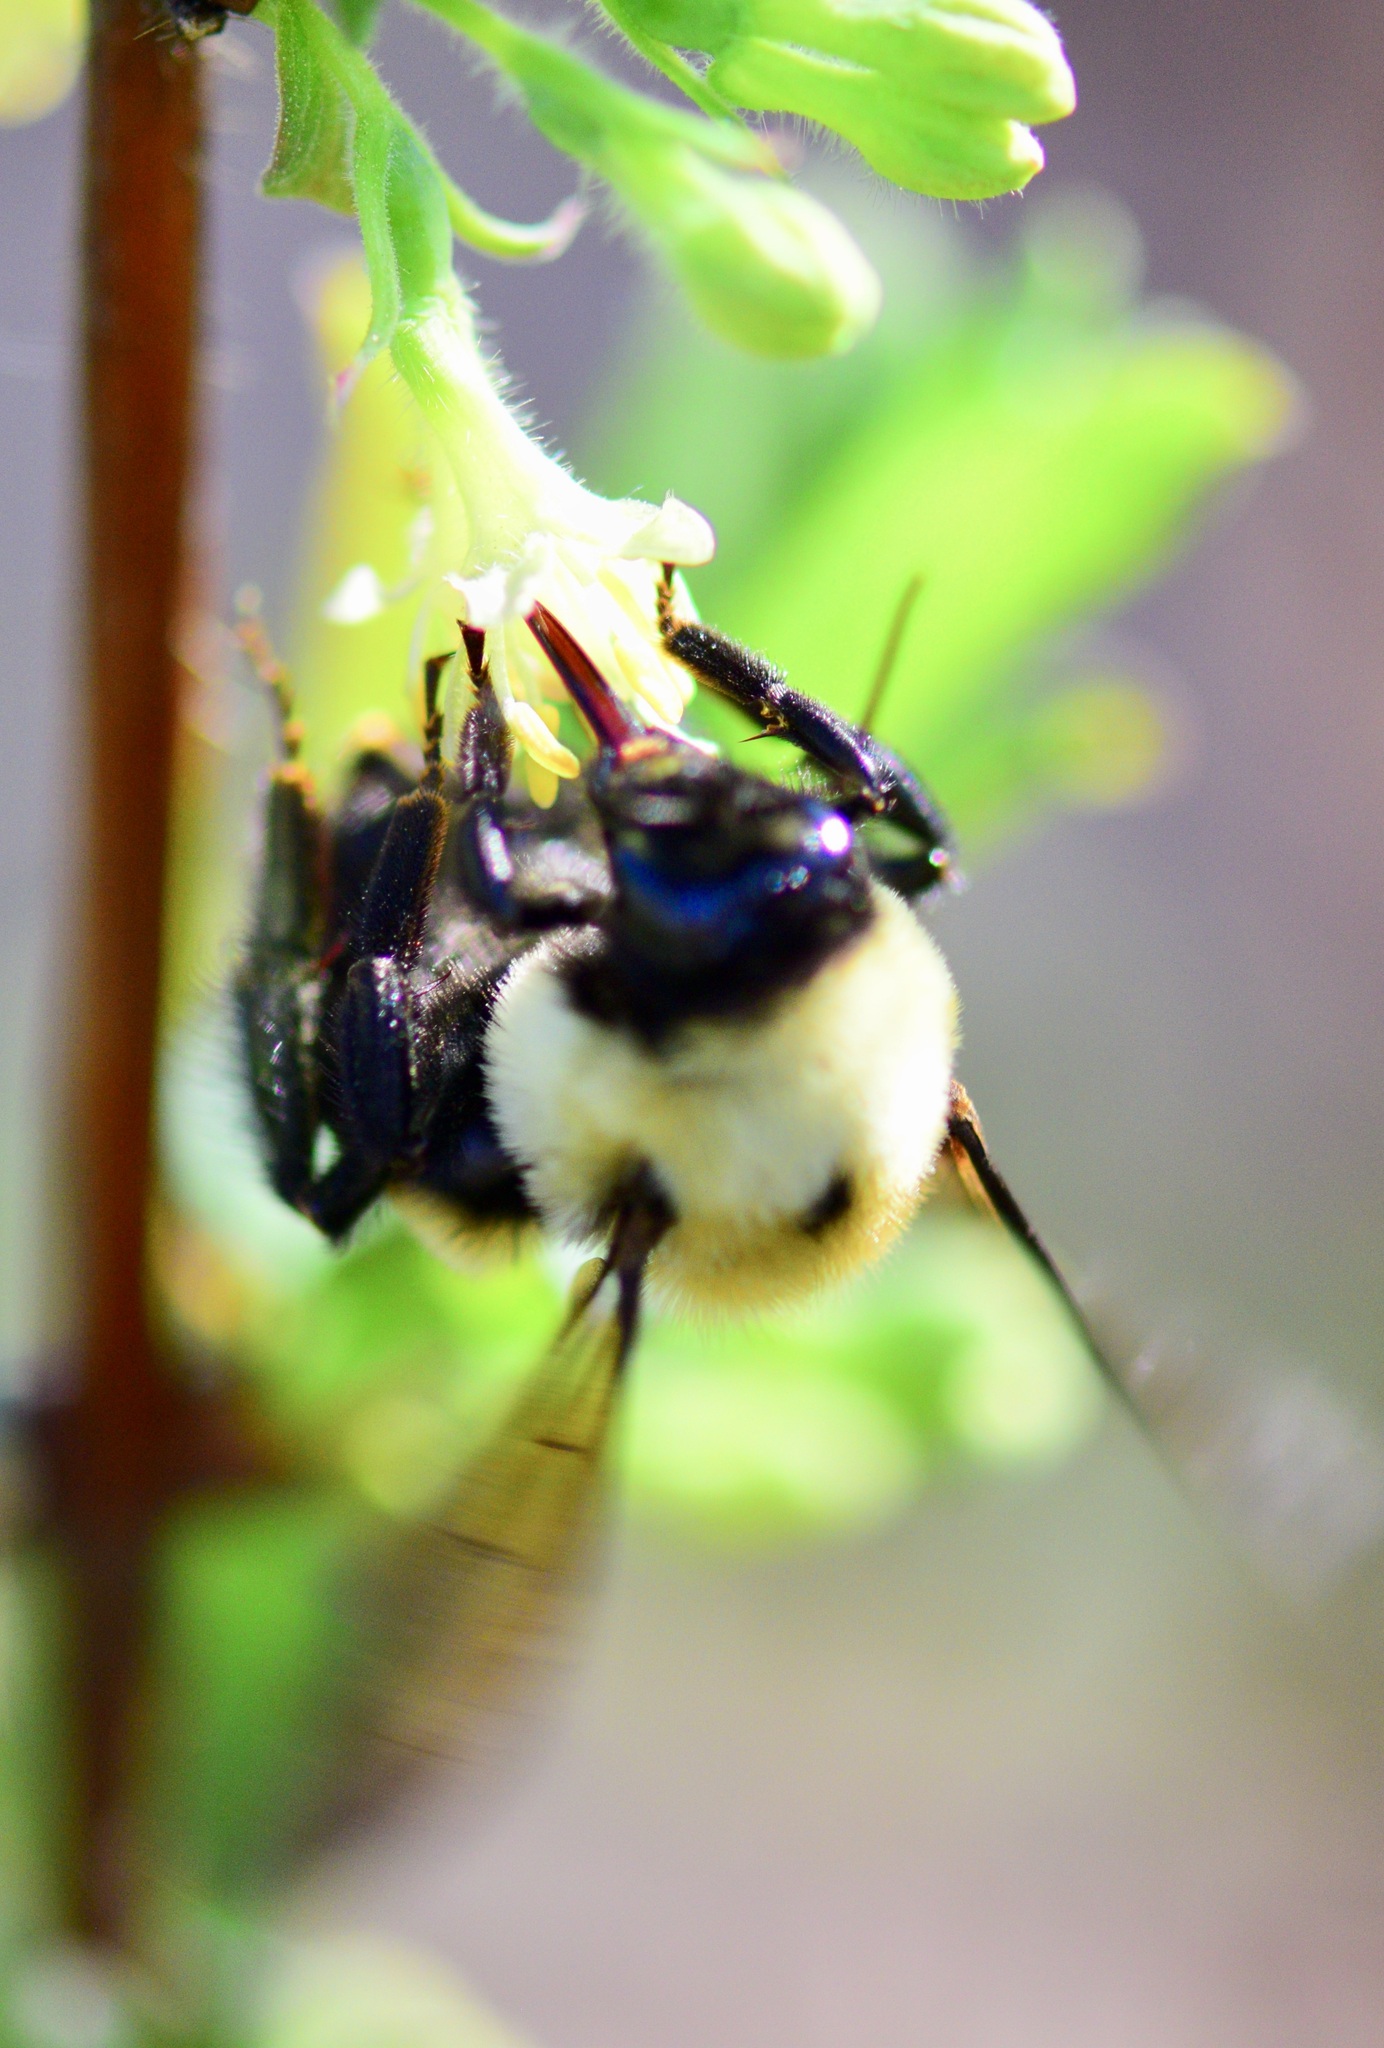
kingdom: Animalia
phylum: Arthropoda
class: Insecta
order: Hymenoptera
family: Apidae
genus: Bombus
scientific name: Bombus griseocollis
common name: Brown-belted bumble bee
